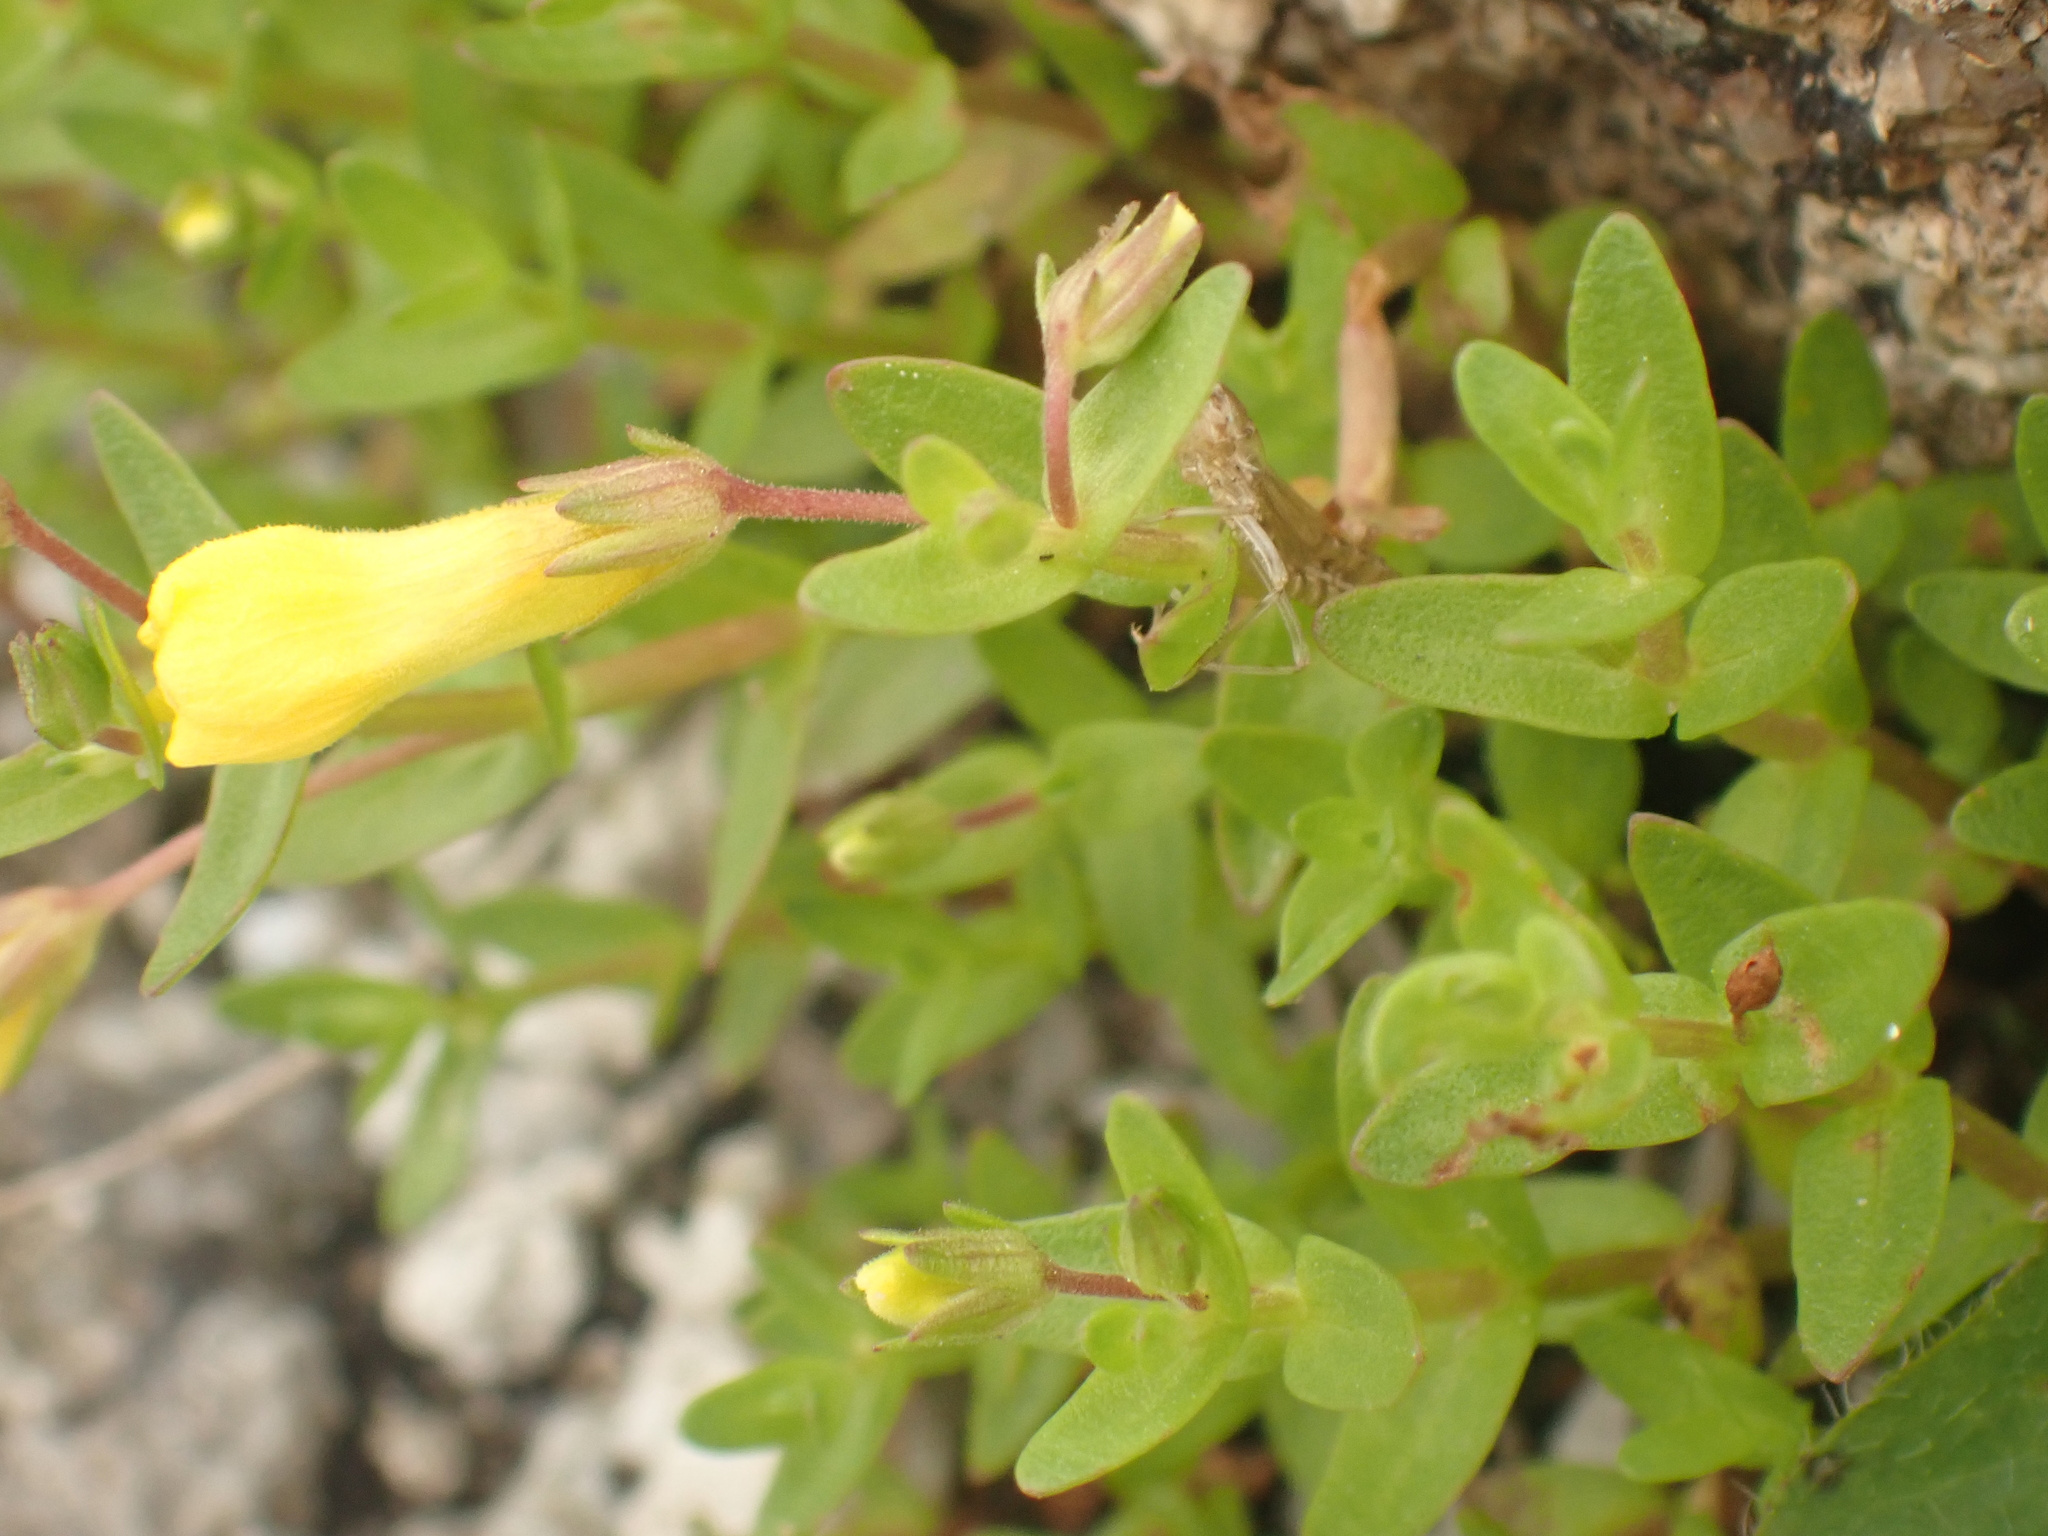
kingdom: Plantae
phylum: Tracheophyta
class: Magnoliopsida
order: Lamiales
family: Plantaginaceae
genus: Gratiola
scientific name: Gratiola lutea
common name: Golden hedge-hyssop
